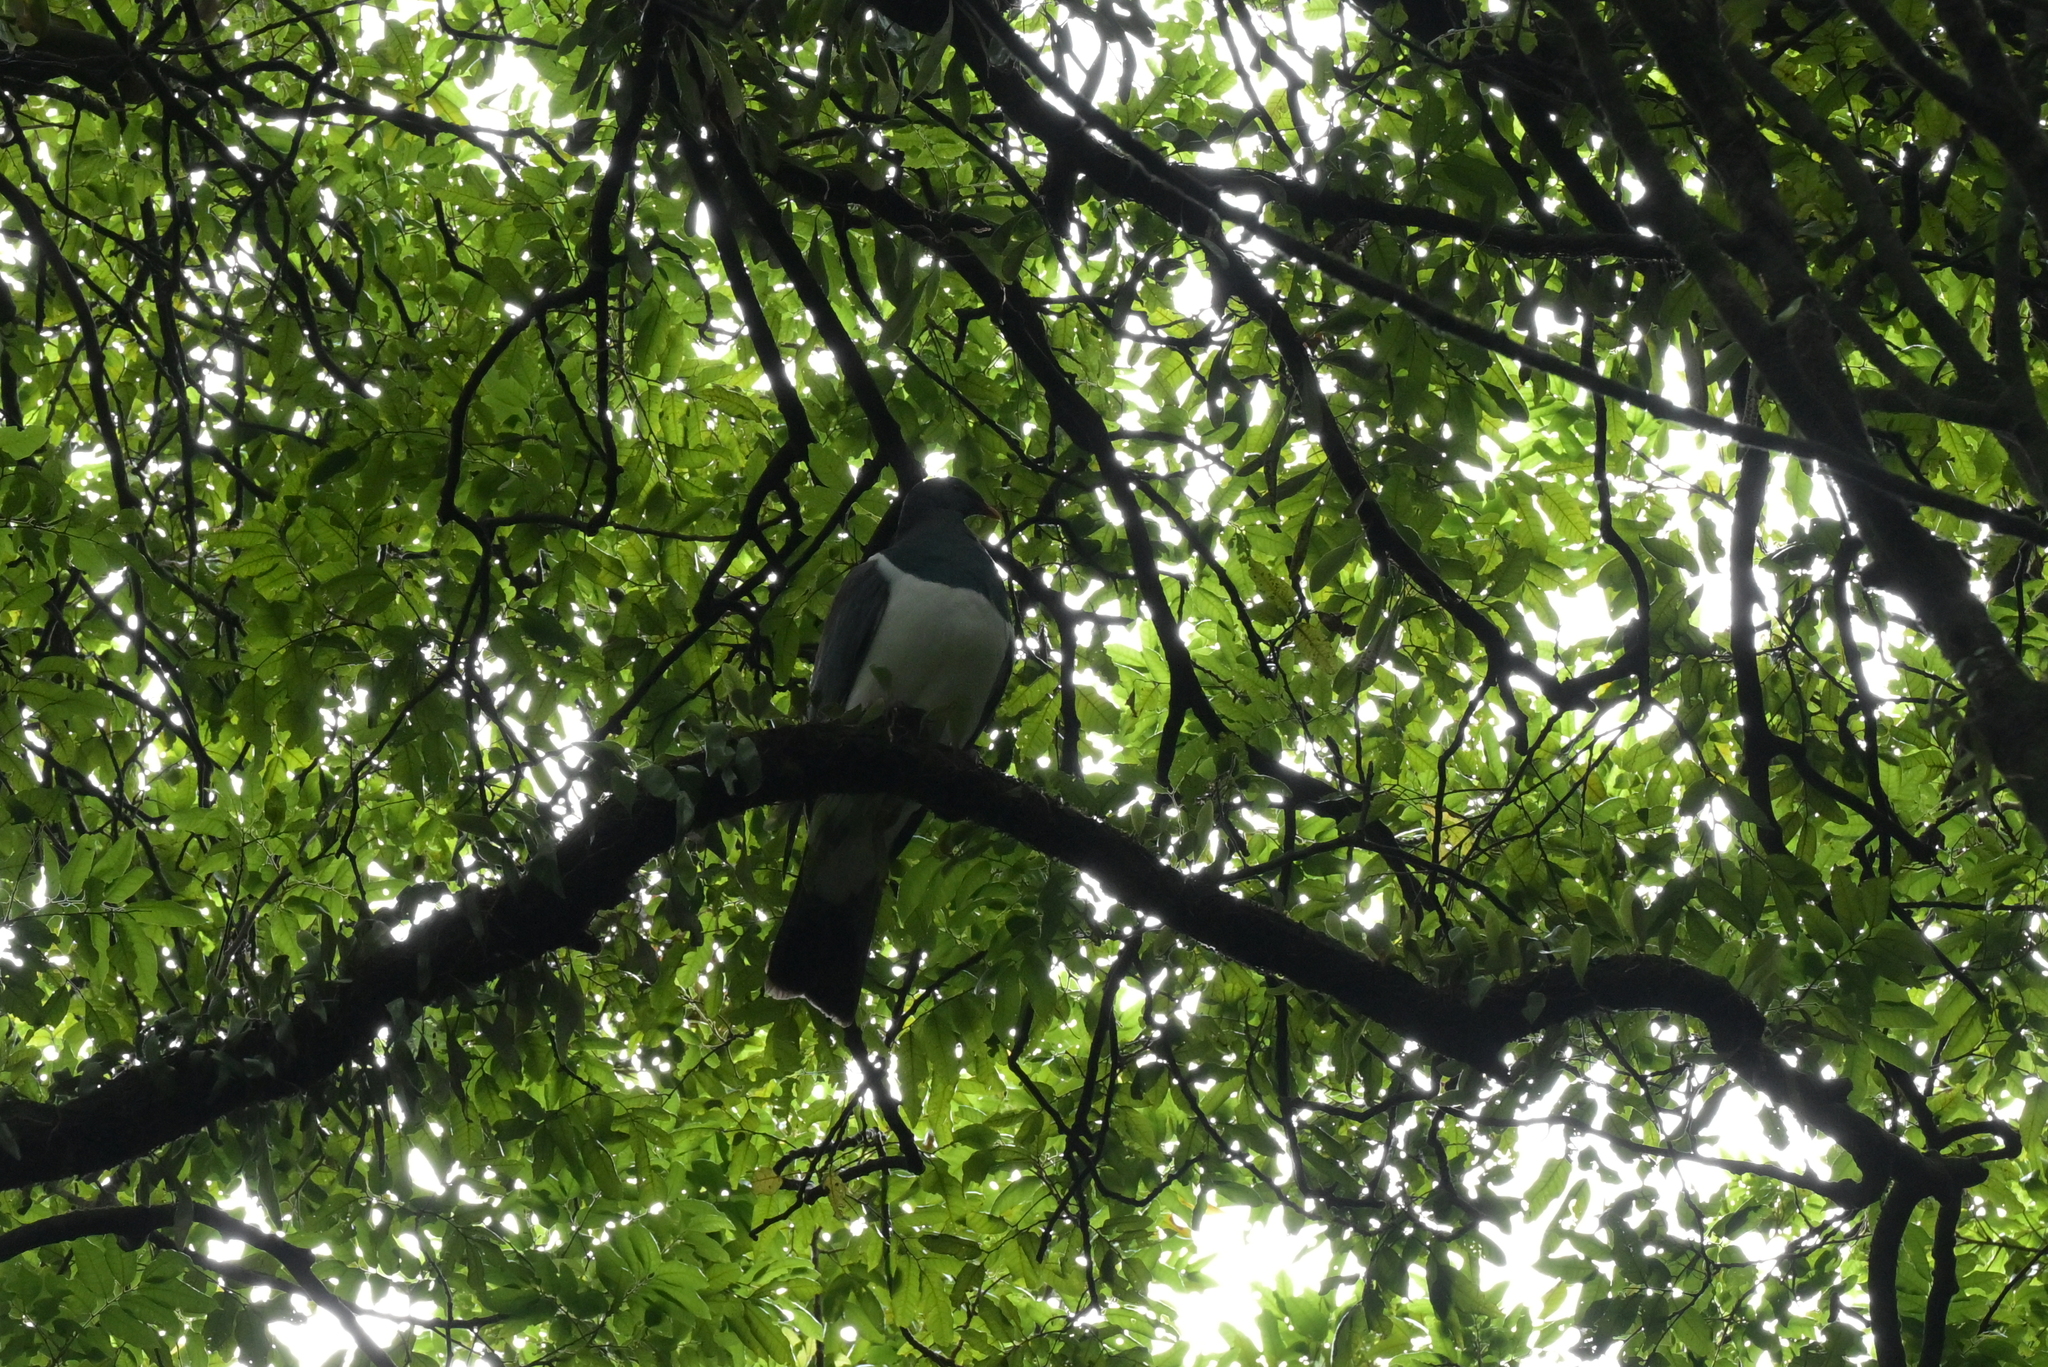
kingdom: Animalia
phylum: Chordata
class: Aves
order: Columbiformes
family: Columbidae
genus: Hemiphaga
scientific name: Hemiphaga novaeseelandiae
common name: New zealand pigeon
